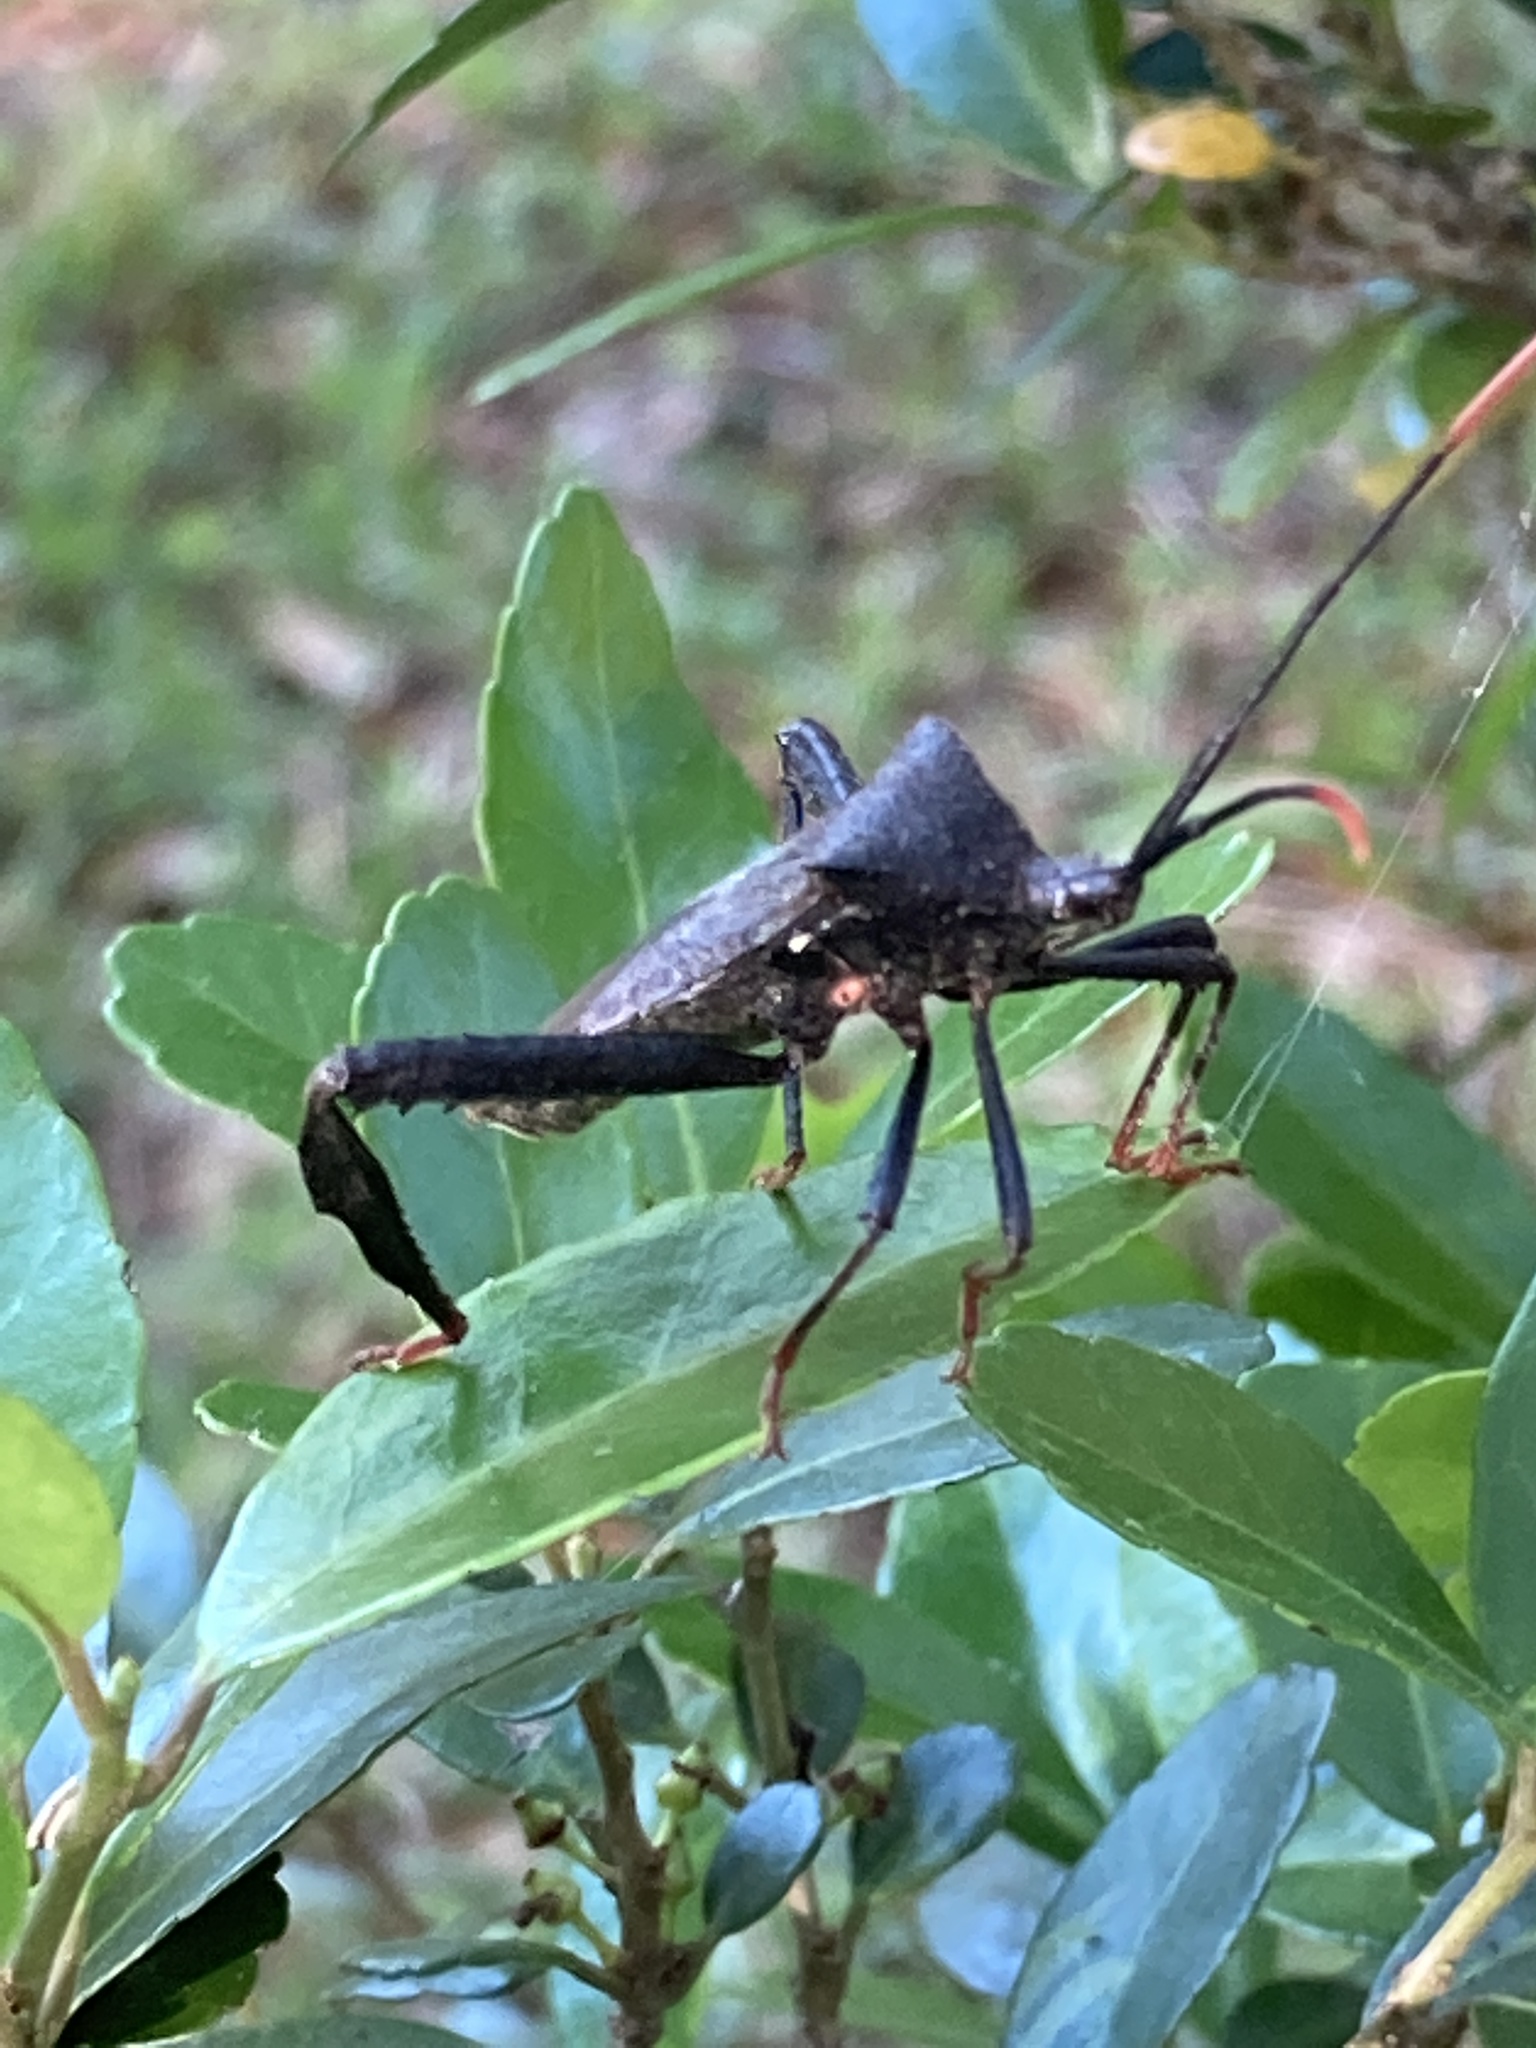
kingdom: Animalia
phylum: Arthropoda
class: Insecta
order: Hemiptera
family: Coreidae
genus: Acanthocephala
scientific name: Acanthocephala terminalis
